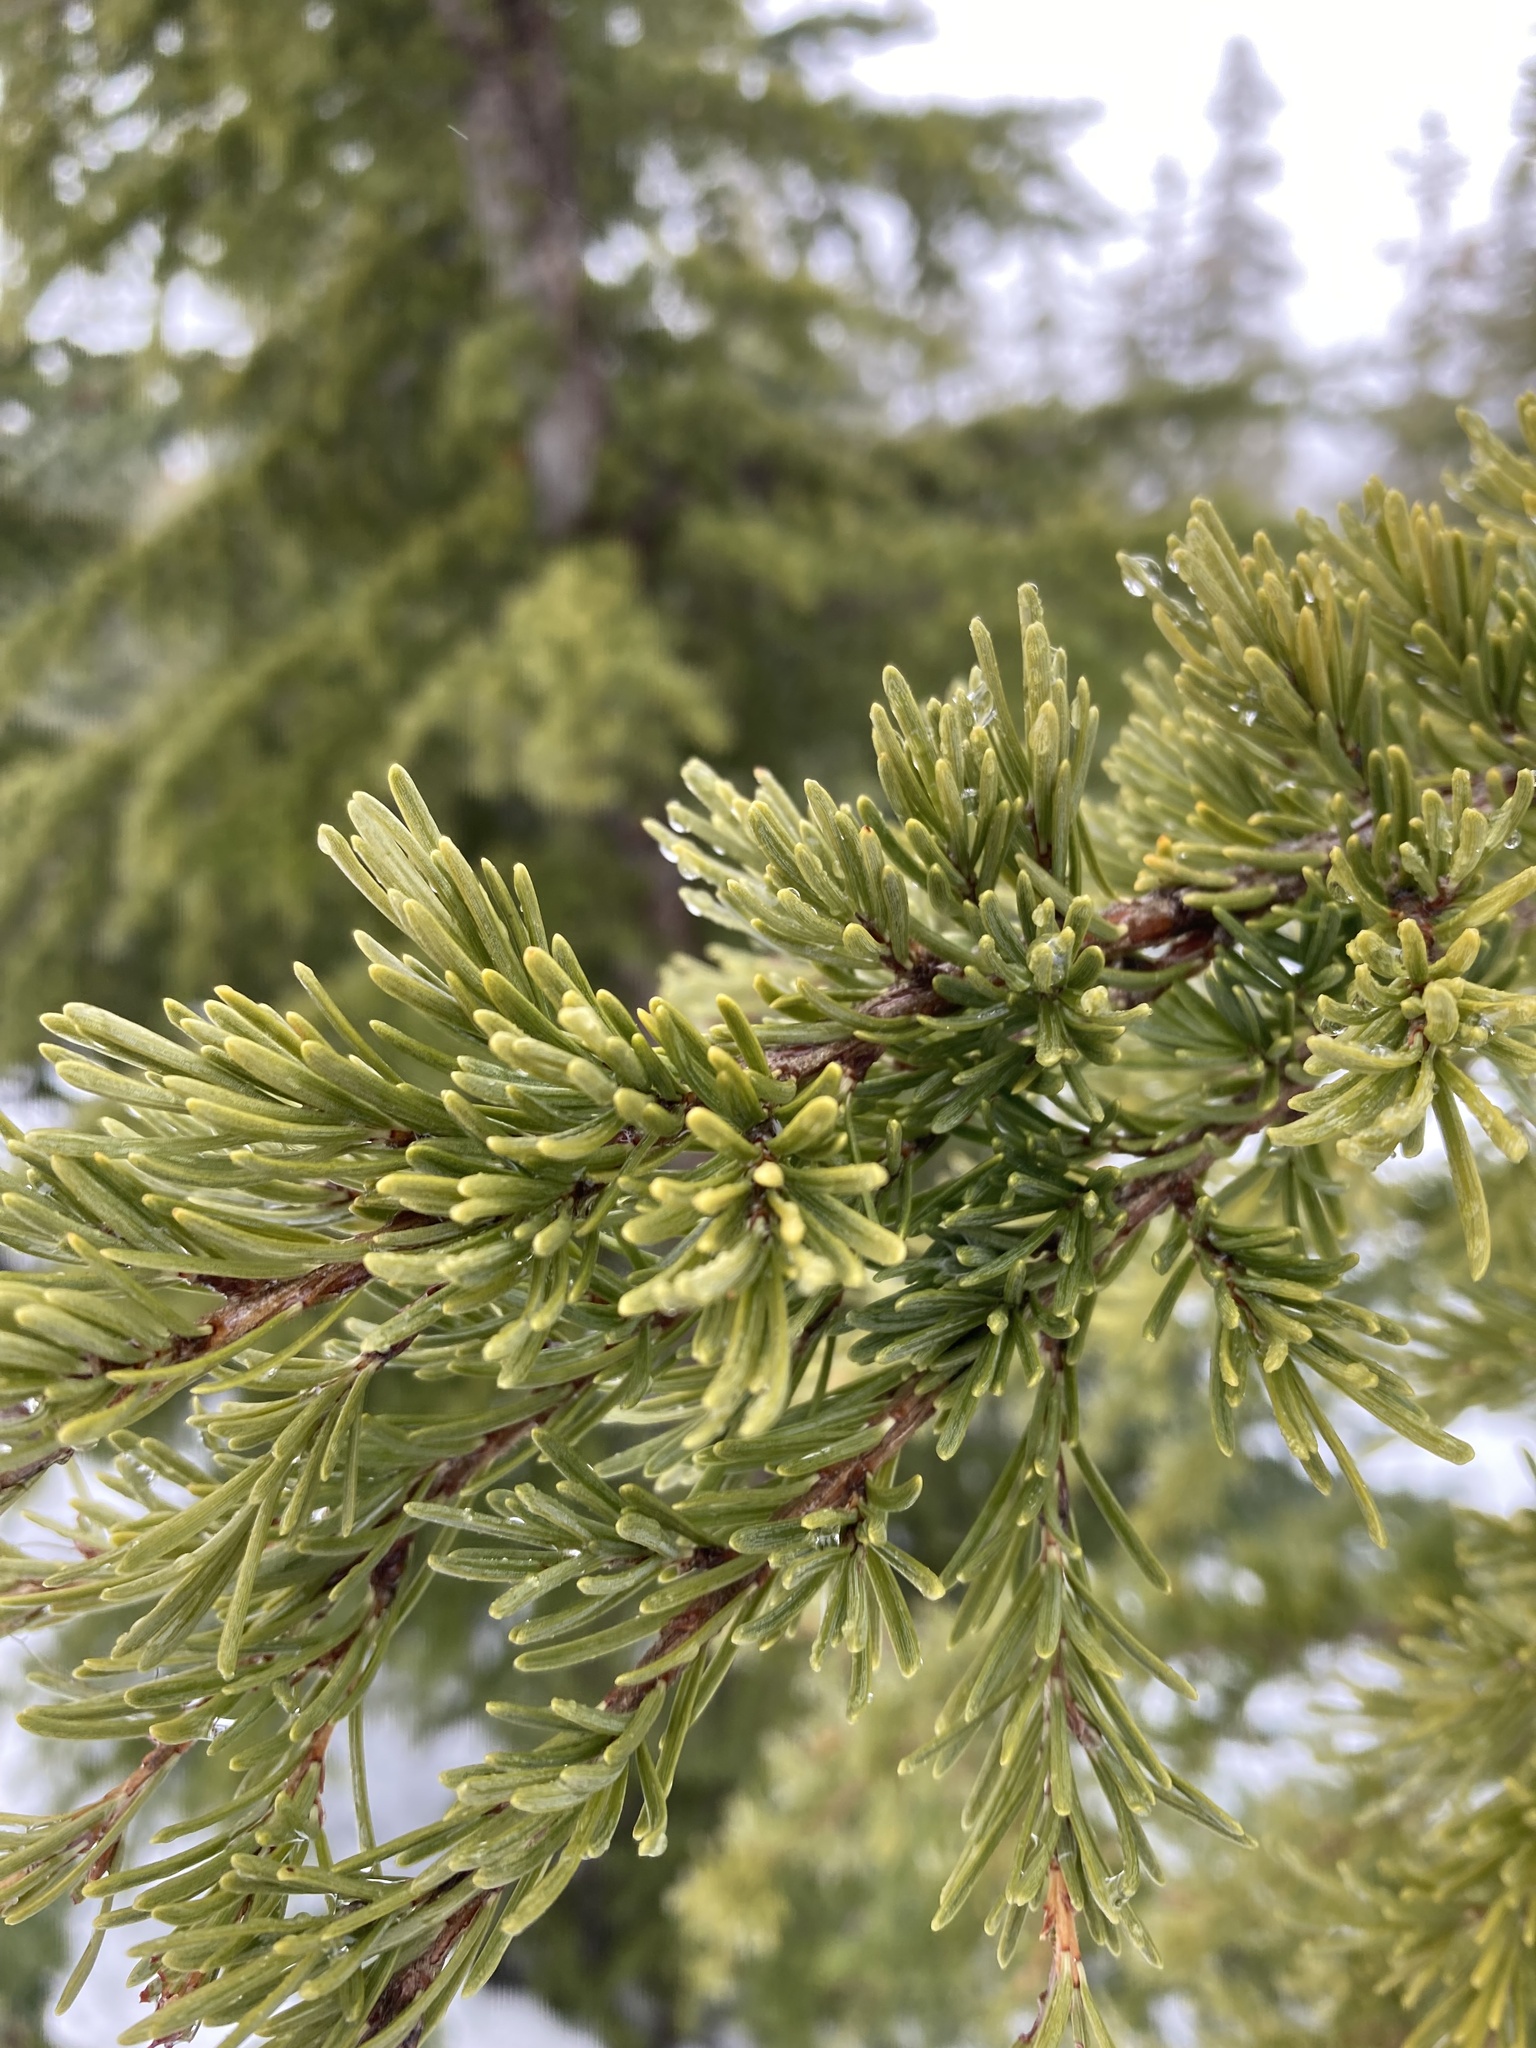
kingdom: Plantae
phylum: Tracheophyta
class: Pinopsida
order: Pinales
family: Pinaceae
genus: Tsuga
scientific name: Tsuga mertensiana
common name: Mountain hemlock
